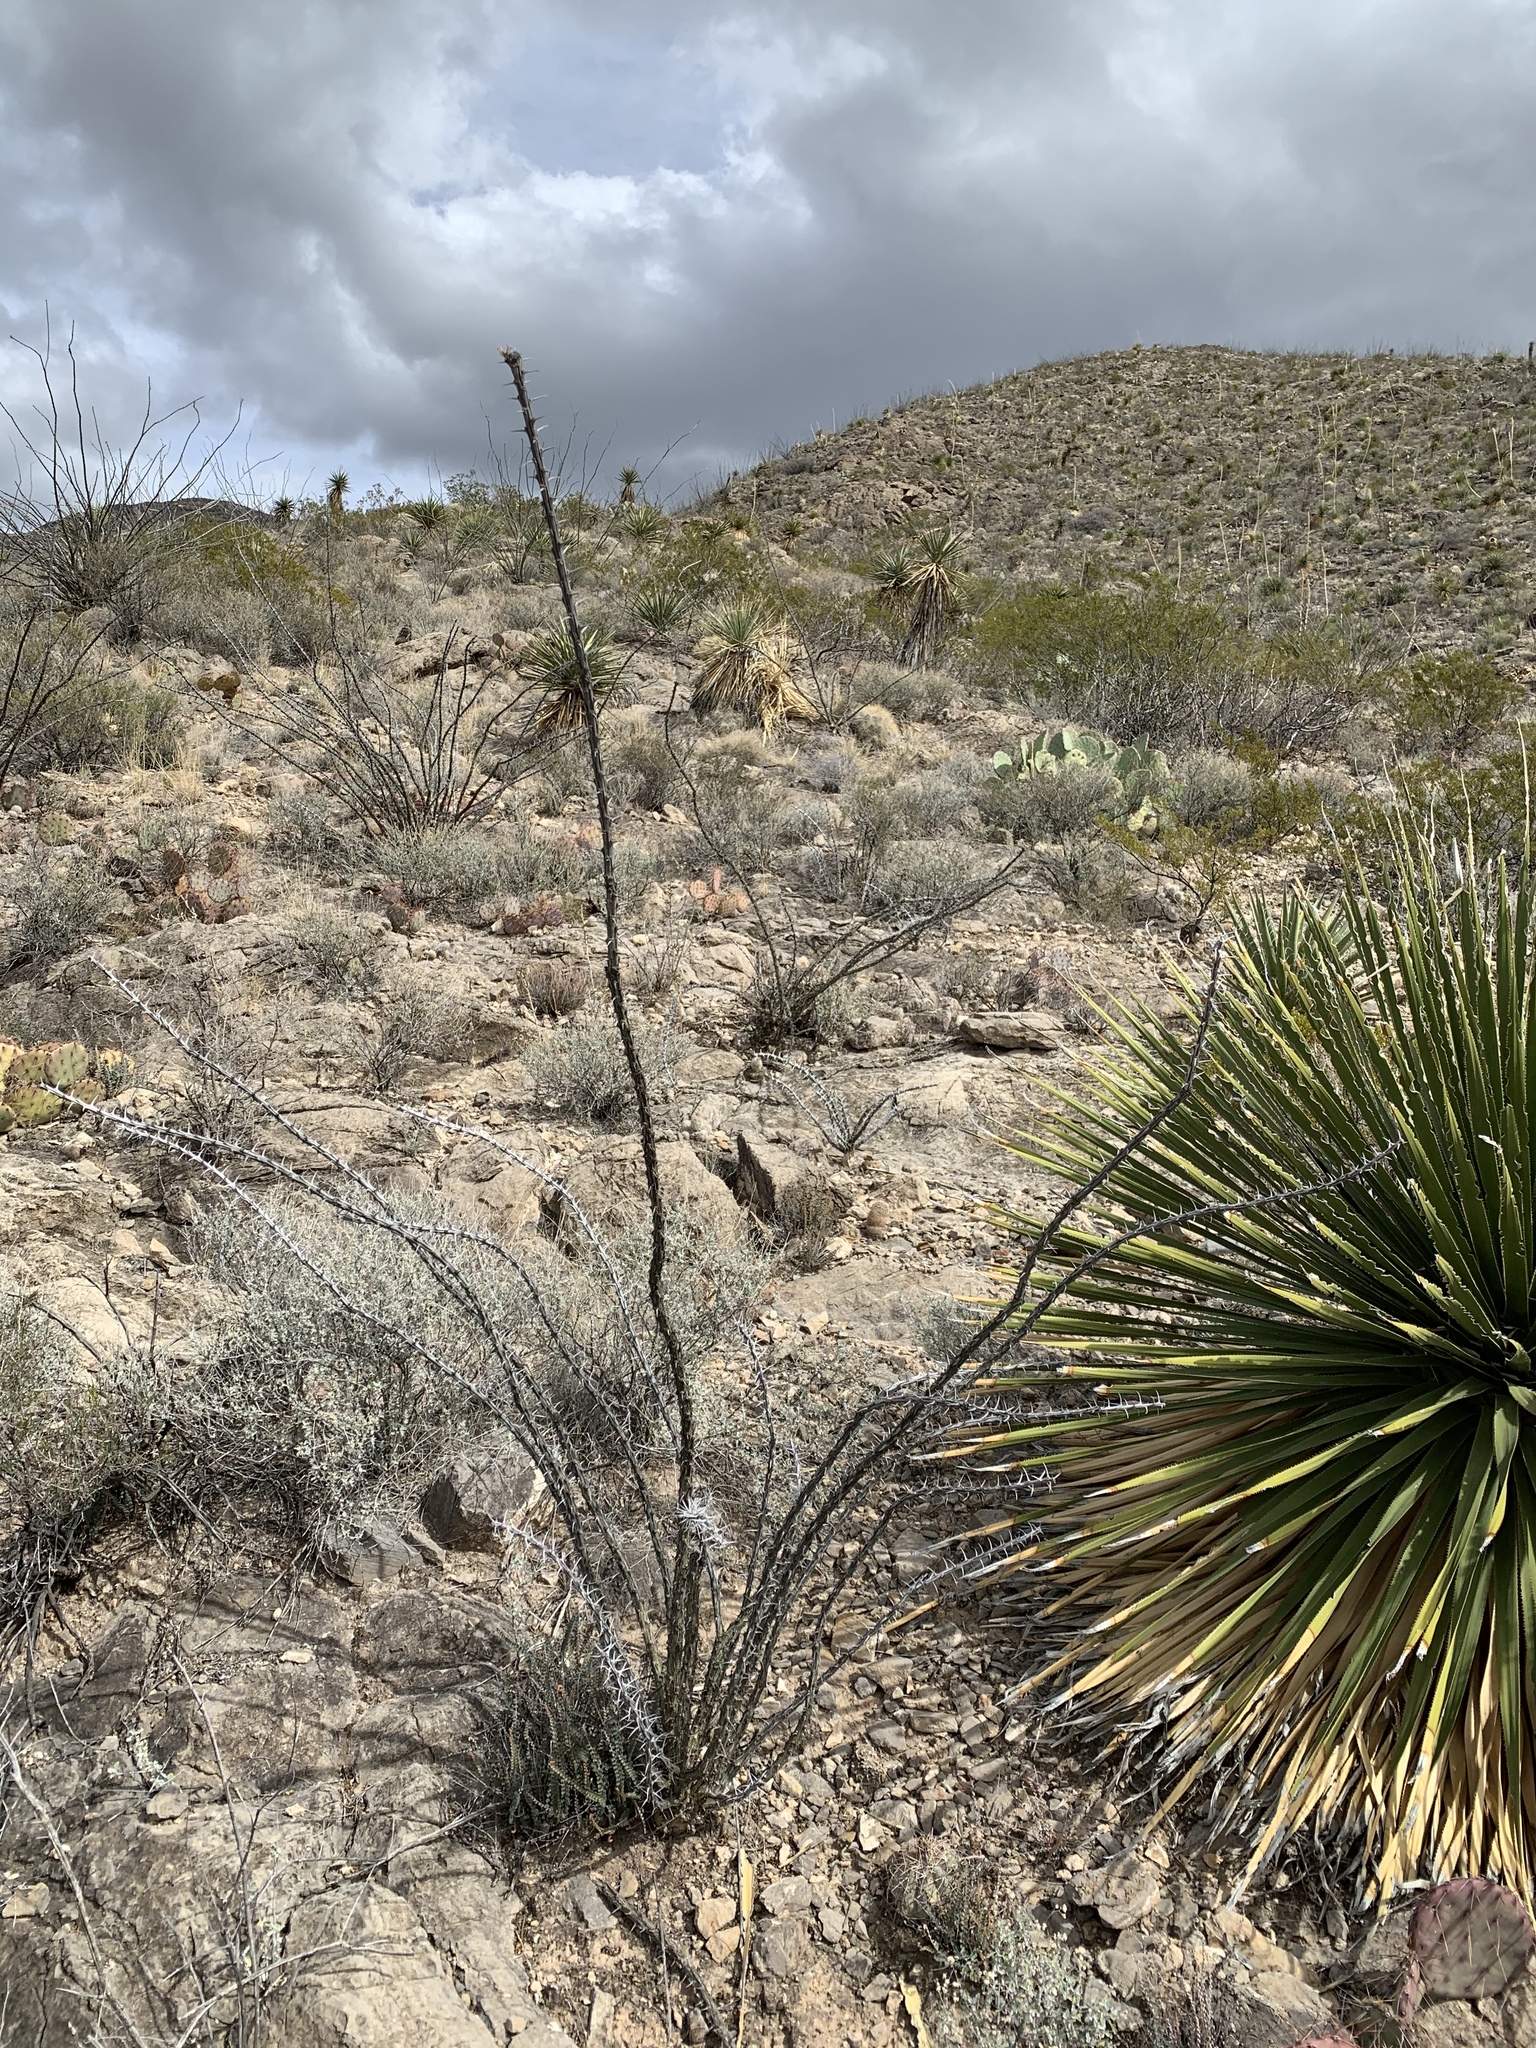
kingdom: Plantae
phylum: Tracheophyta
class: Magnoliopsida
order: Ericales
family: Fouquieriaceae
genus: Fouquieria
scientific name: Fouquieria splendens
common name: Vine-cactus
